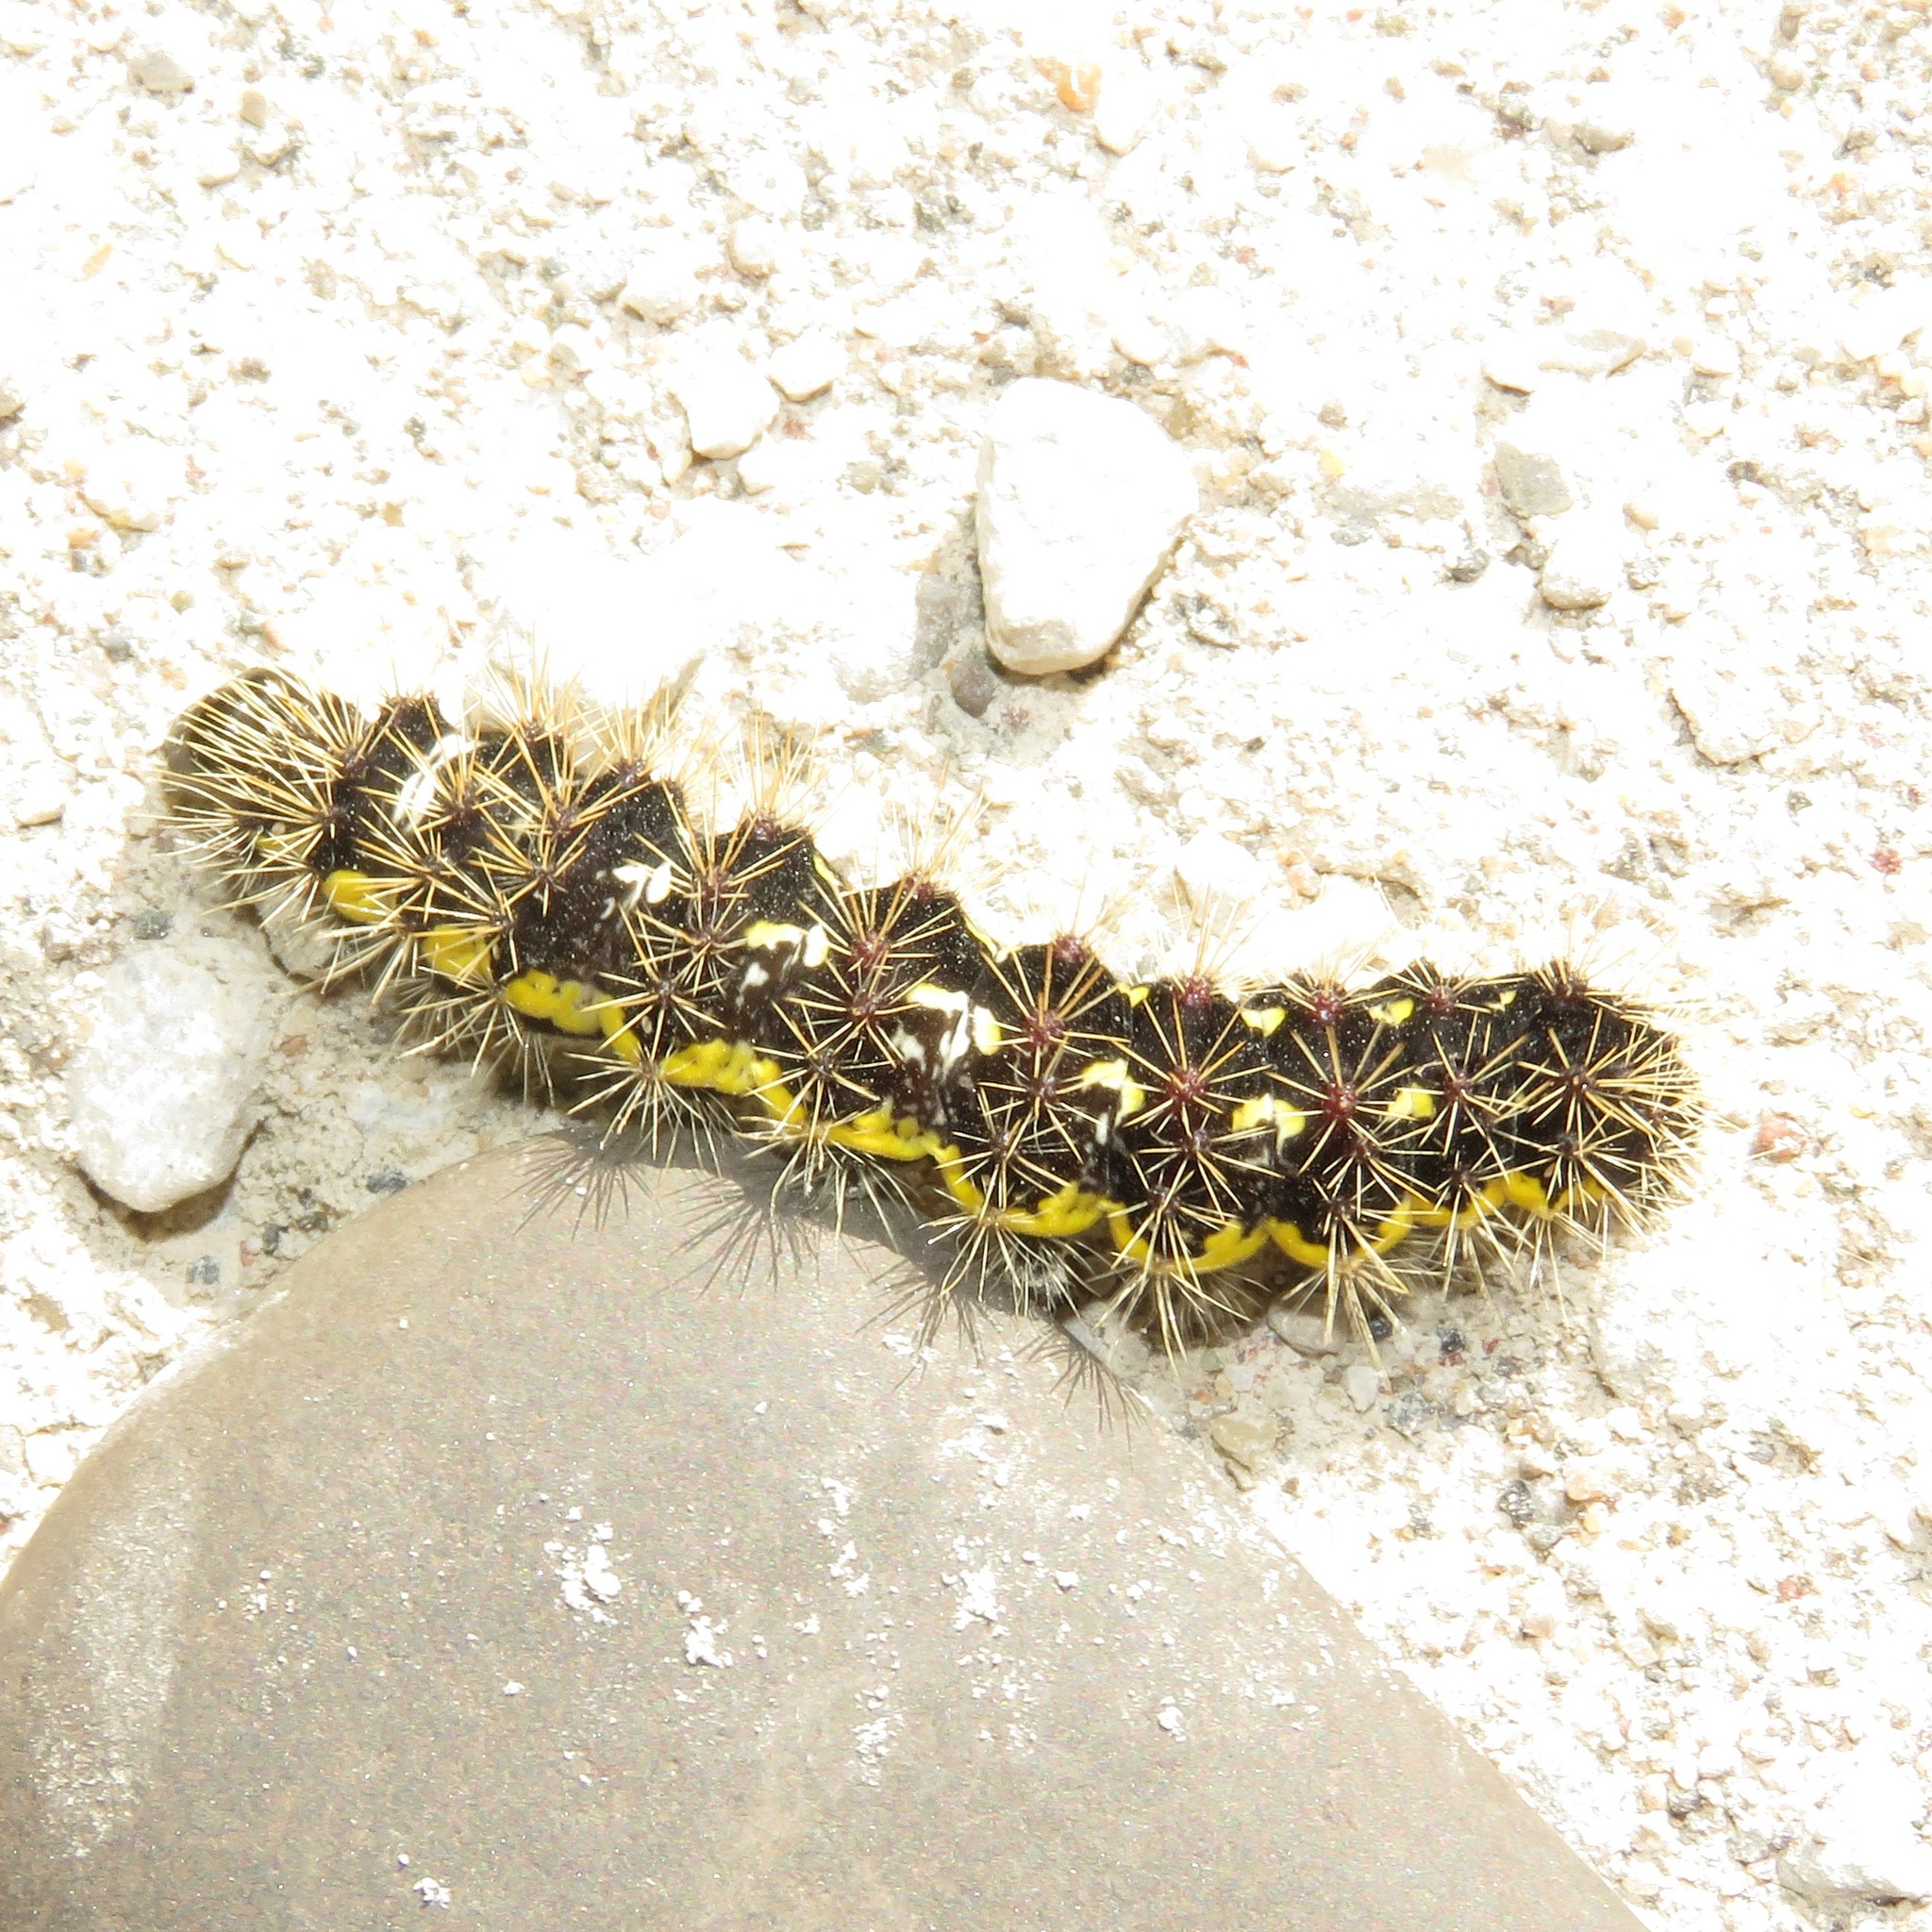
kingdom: Animalia
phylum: Arthropoda
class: Insecta
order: Lepidoptera
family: Noctuidae
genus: Acronicta
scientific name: Acronicta oblinita
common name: Smeared dagger
